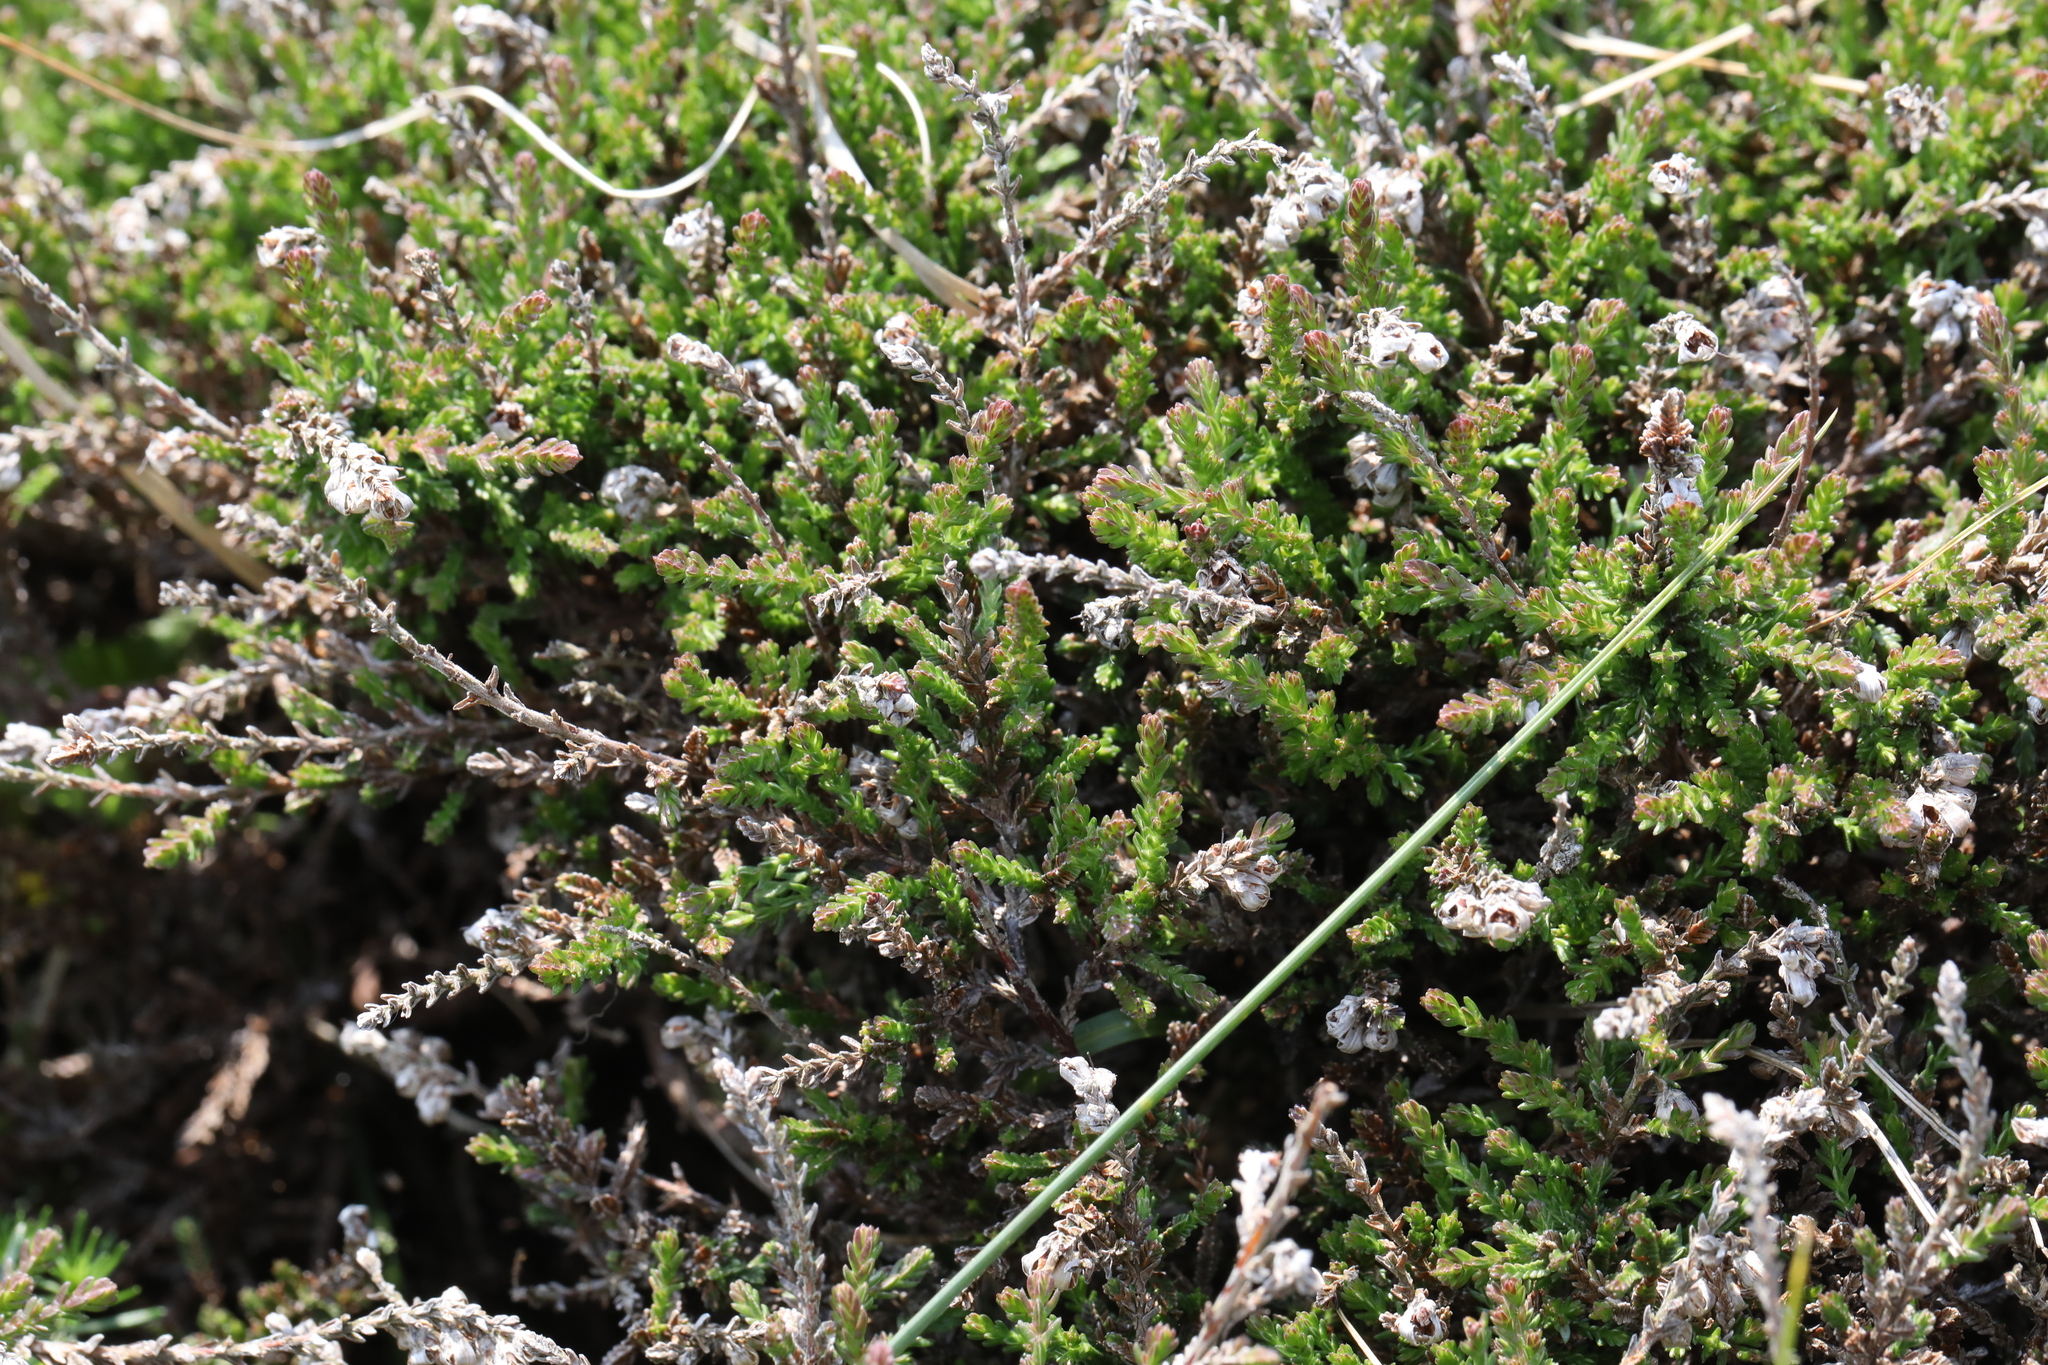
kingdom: Plantae
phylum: Tracheophyta
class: Magnoliopsida
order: Ericales
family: Ericaceae
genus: Calluna
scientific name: Calluna vulgaris
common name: Heather
